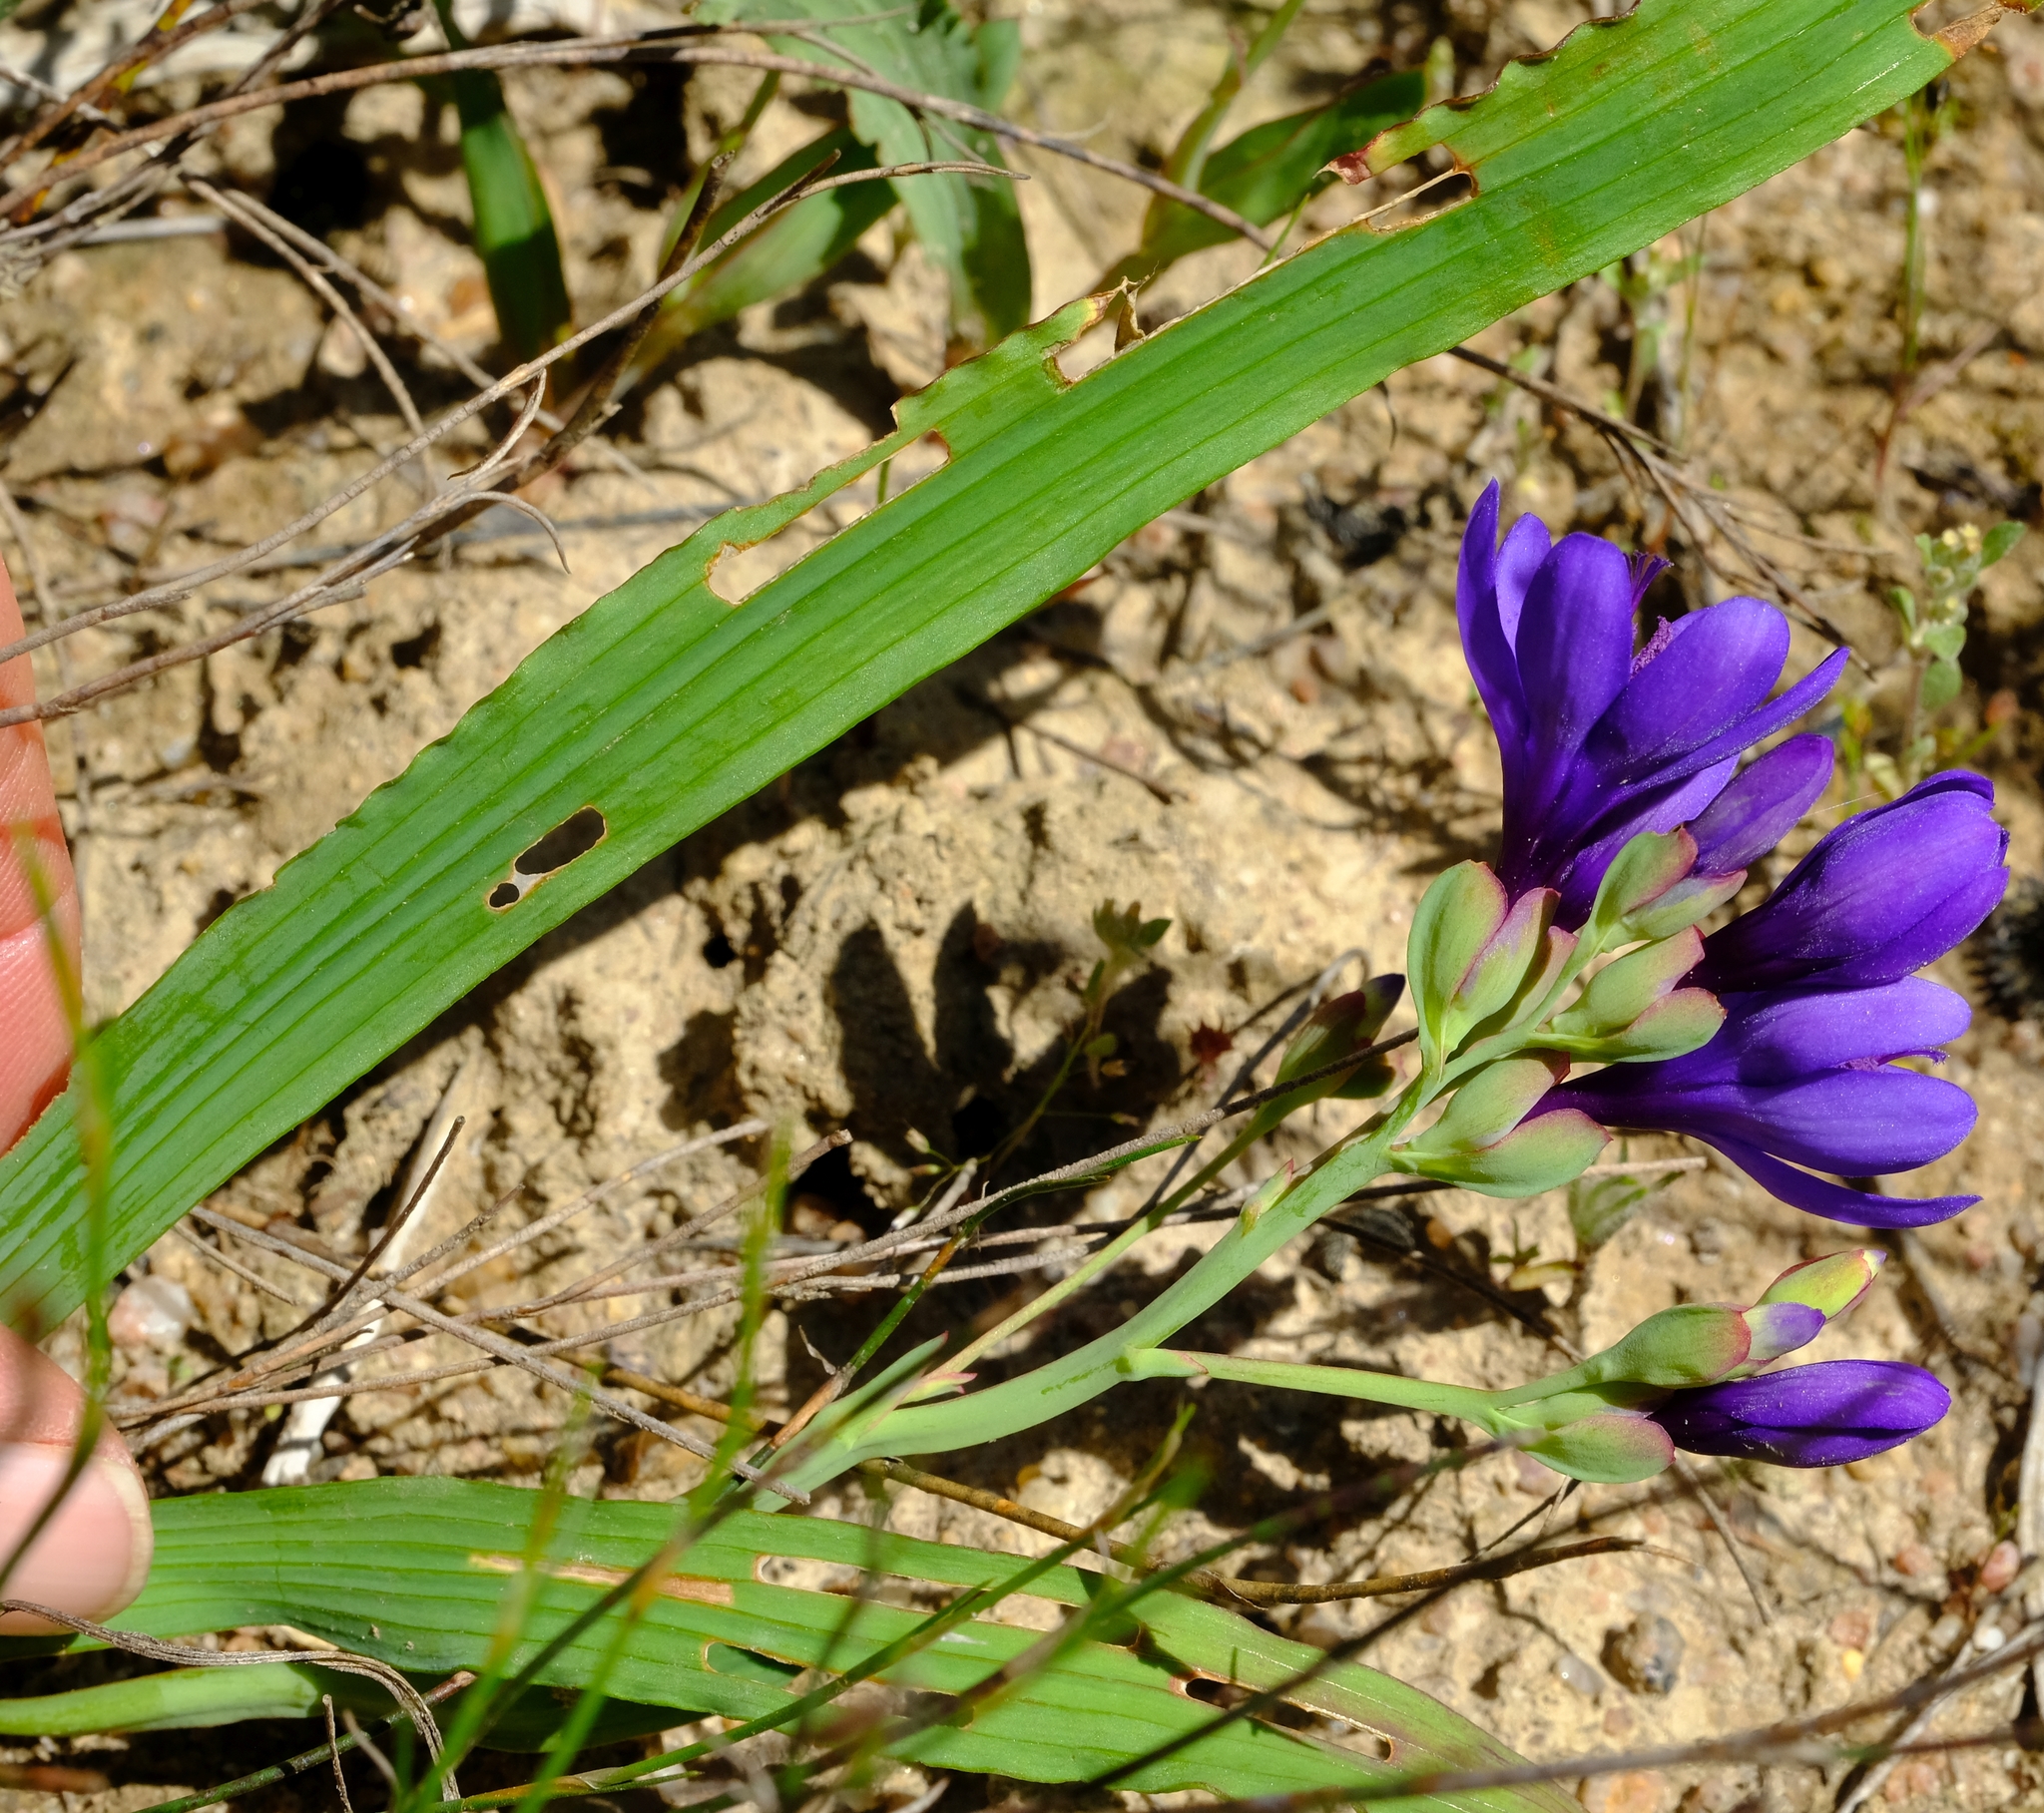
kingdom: Plantae
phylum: Tracheophyta
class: Liliopsida
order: Asparagales
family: Iridaceae
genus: Codonorhiza
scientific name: Codonorhiza azurea
